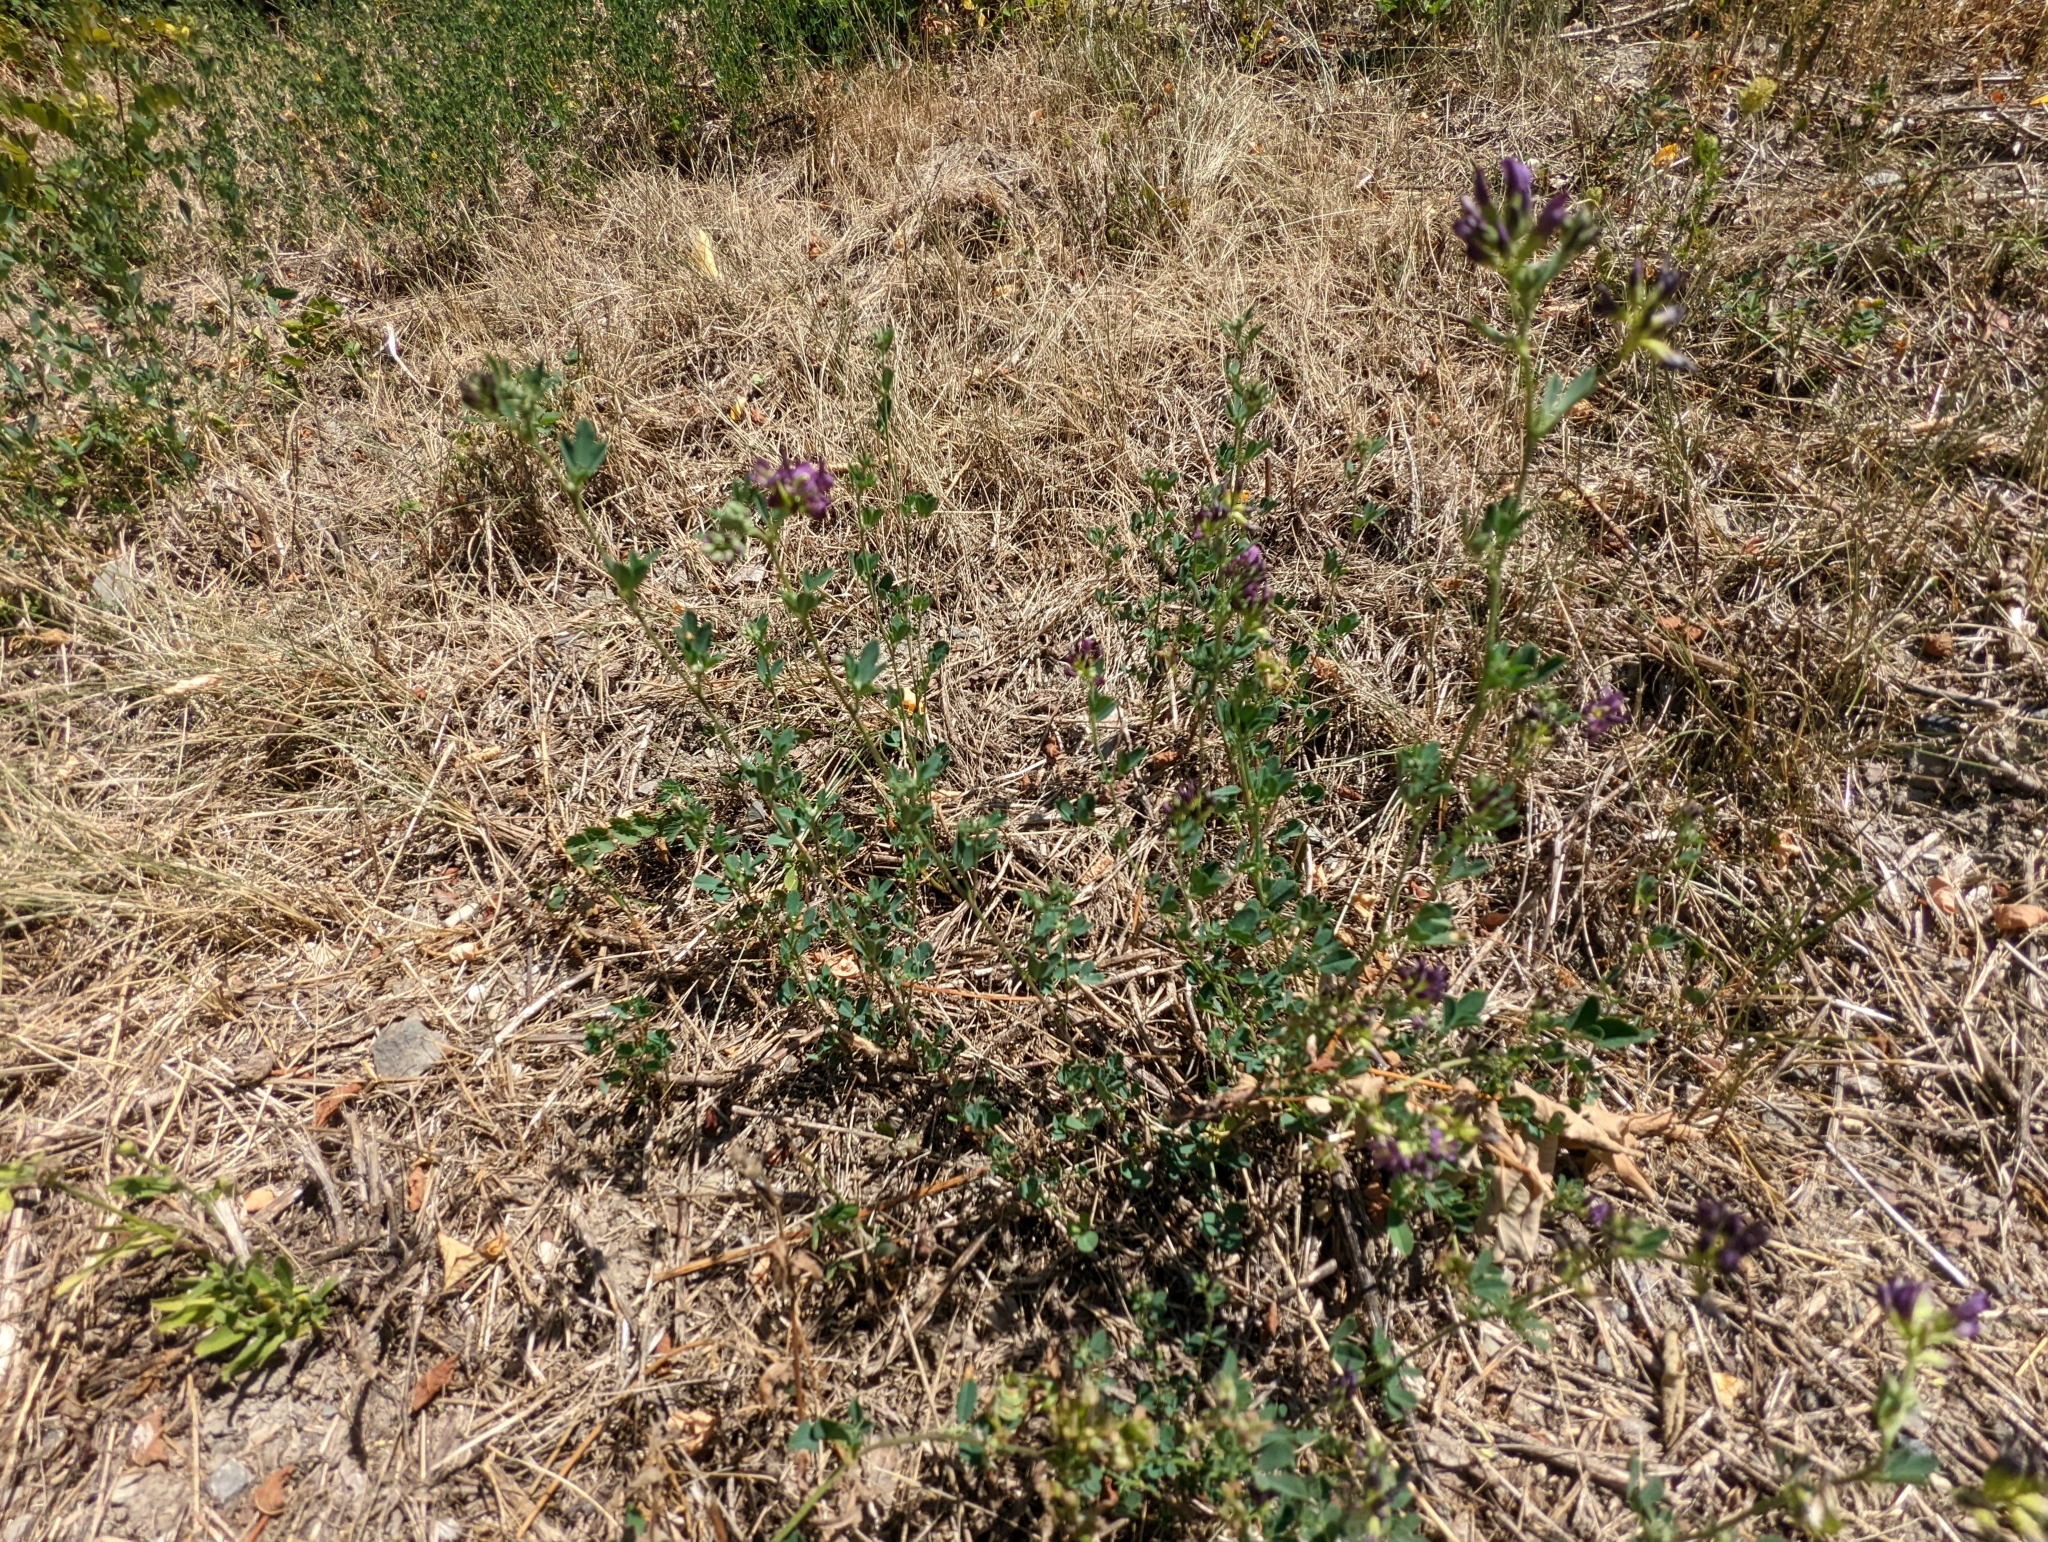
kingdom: Plantae
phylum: Tracheophyta
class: Magnoliopsida
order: Fabales
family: Fabaceae
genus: Medicago
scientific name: Medicago sativa
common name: Alfalfa
